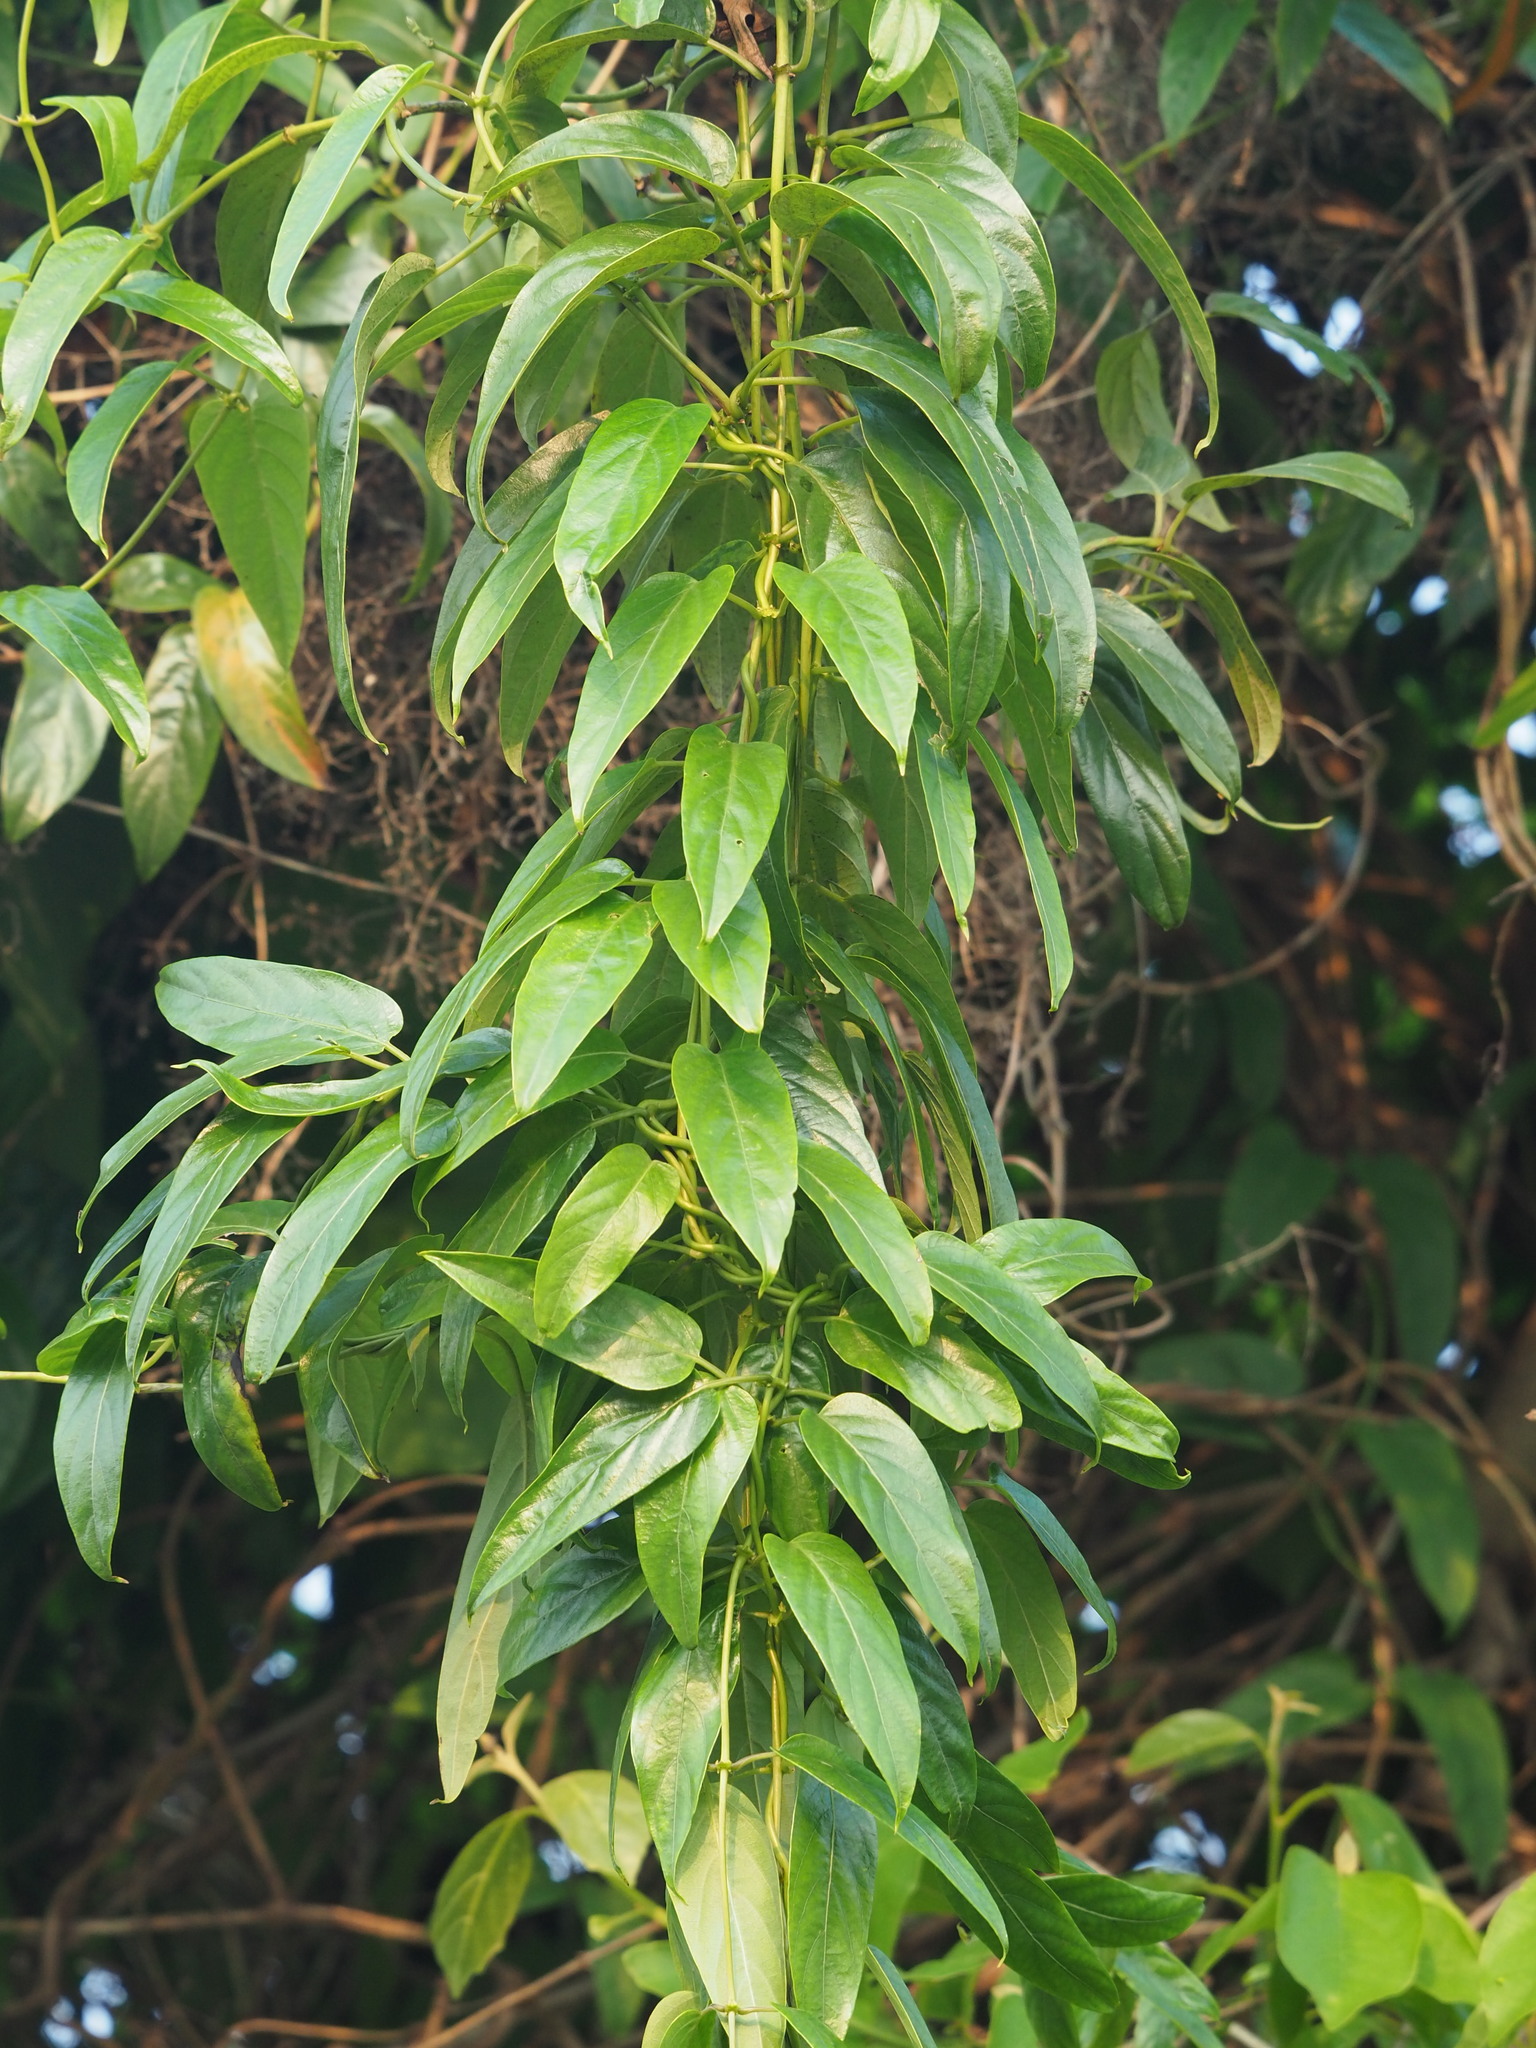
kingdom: Plantae
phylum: Tracheophyta
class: Magnoliopsida
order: Gentianales
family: Rubiaceae
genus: Paederia
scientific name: Paederia foetida
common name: Stinkvine
